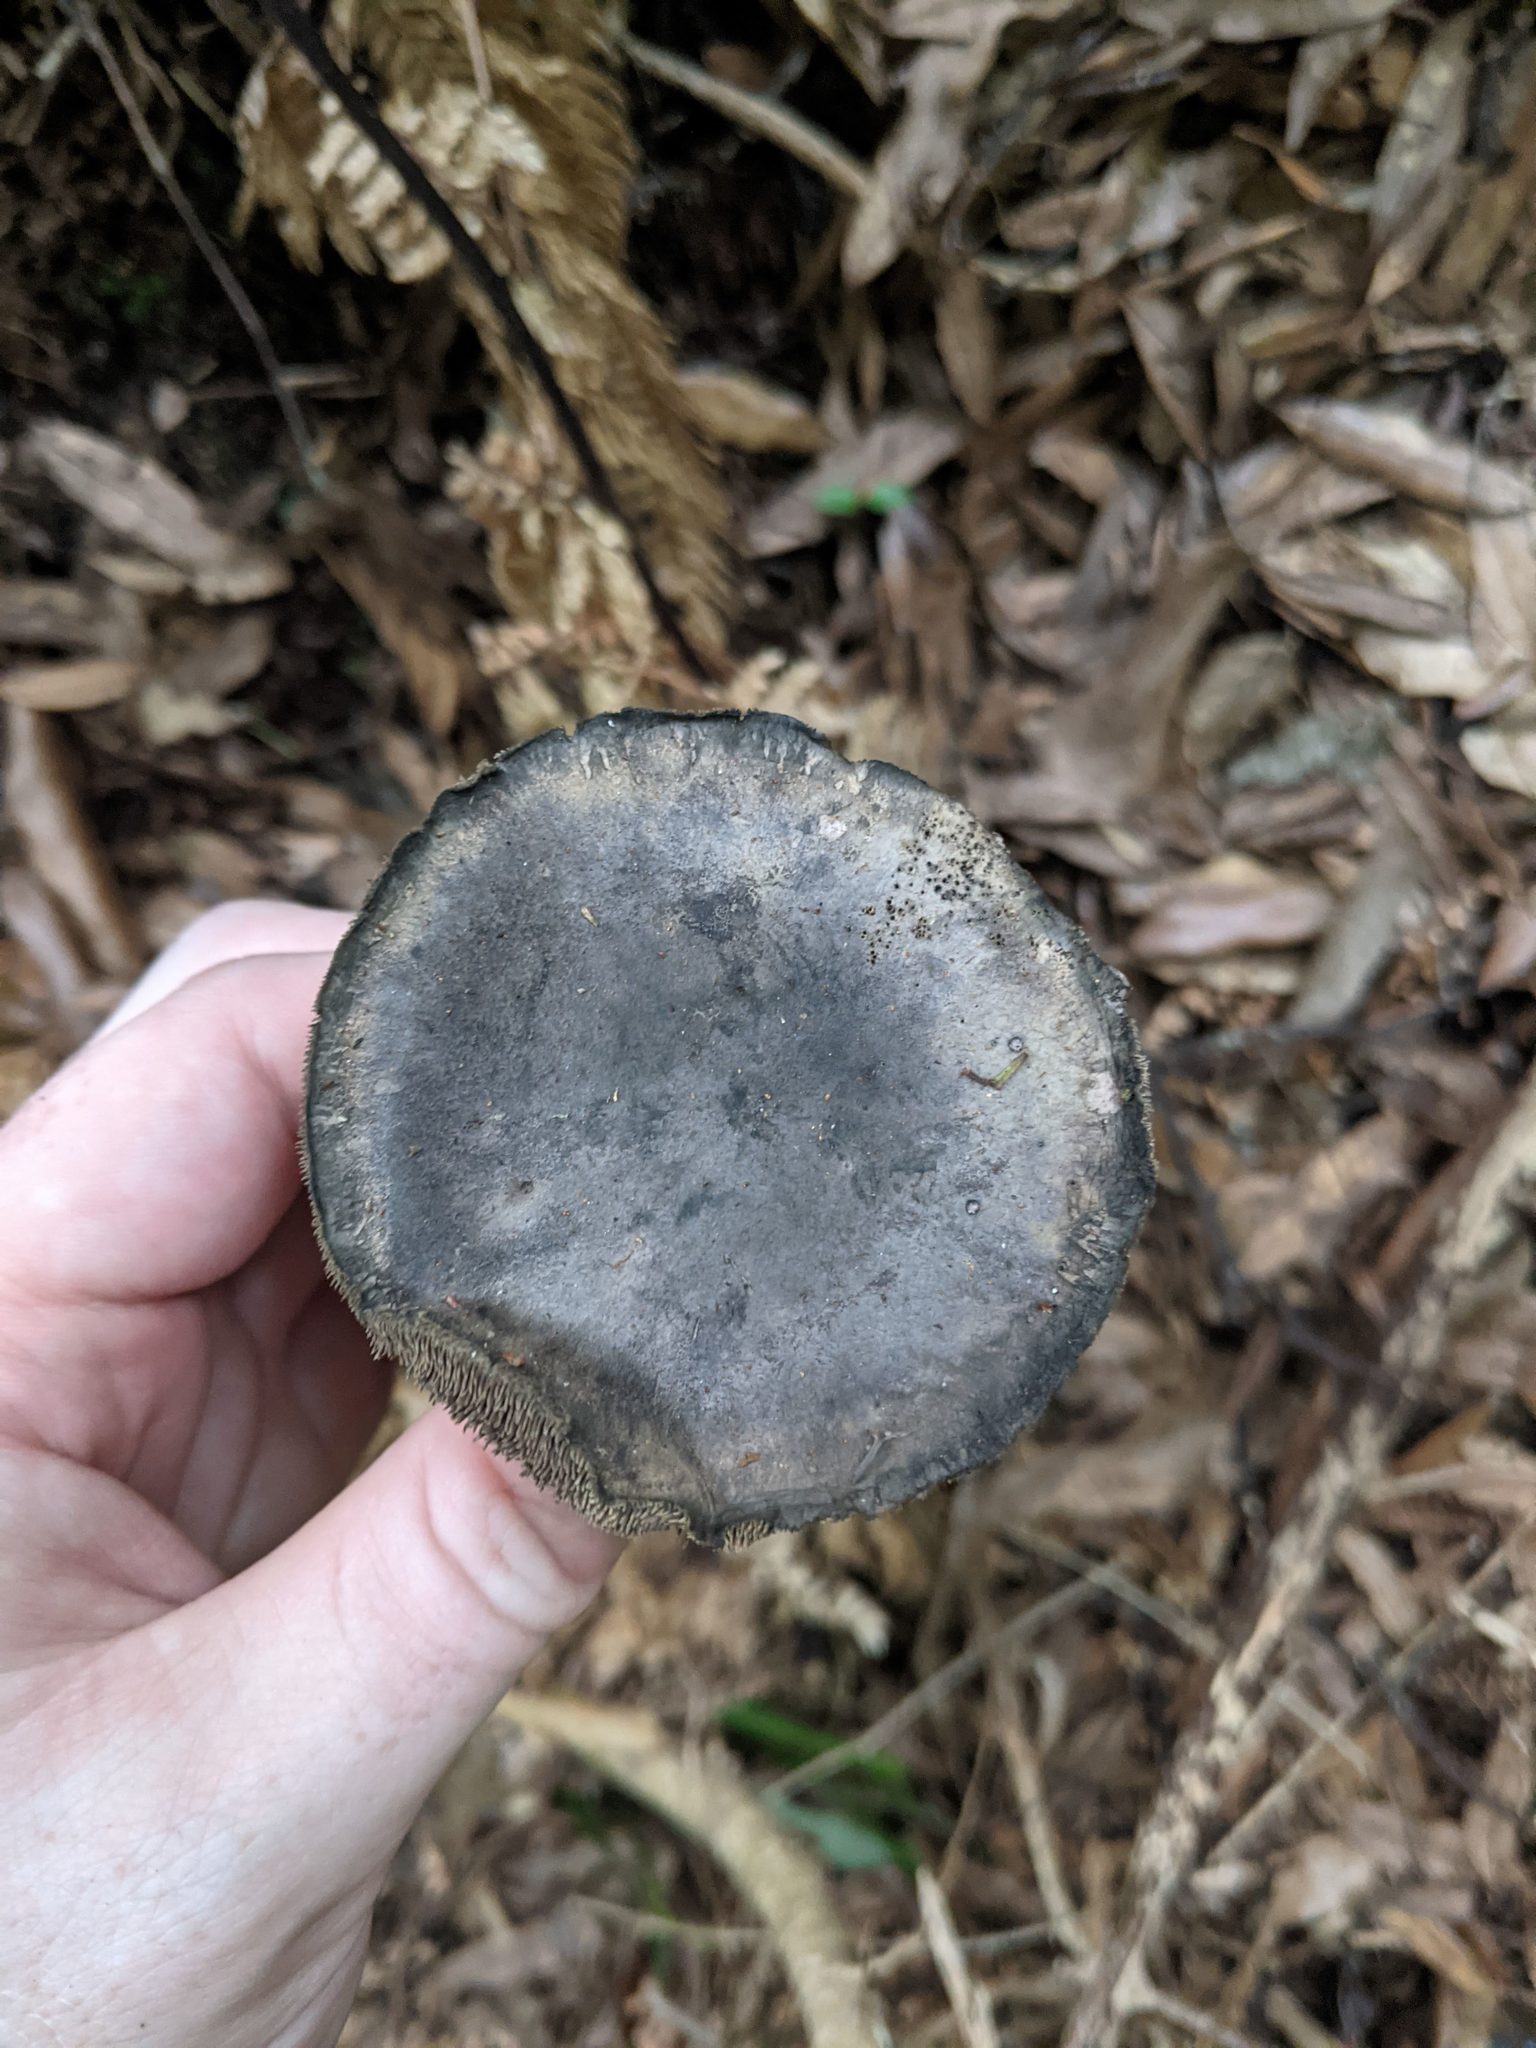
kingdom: Fungi
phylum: Basidiomycota
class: Agaricomycetes
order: Thelephorales
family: Bankeraceae
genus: Sarcodon
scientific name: Sarcodon
